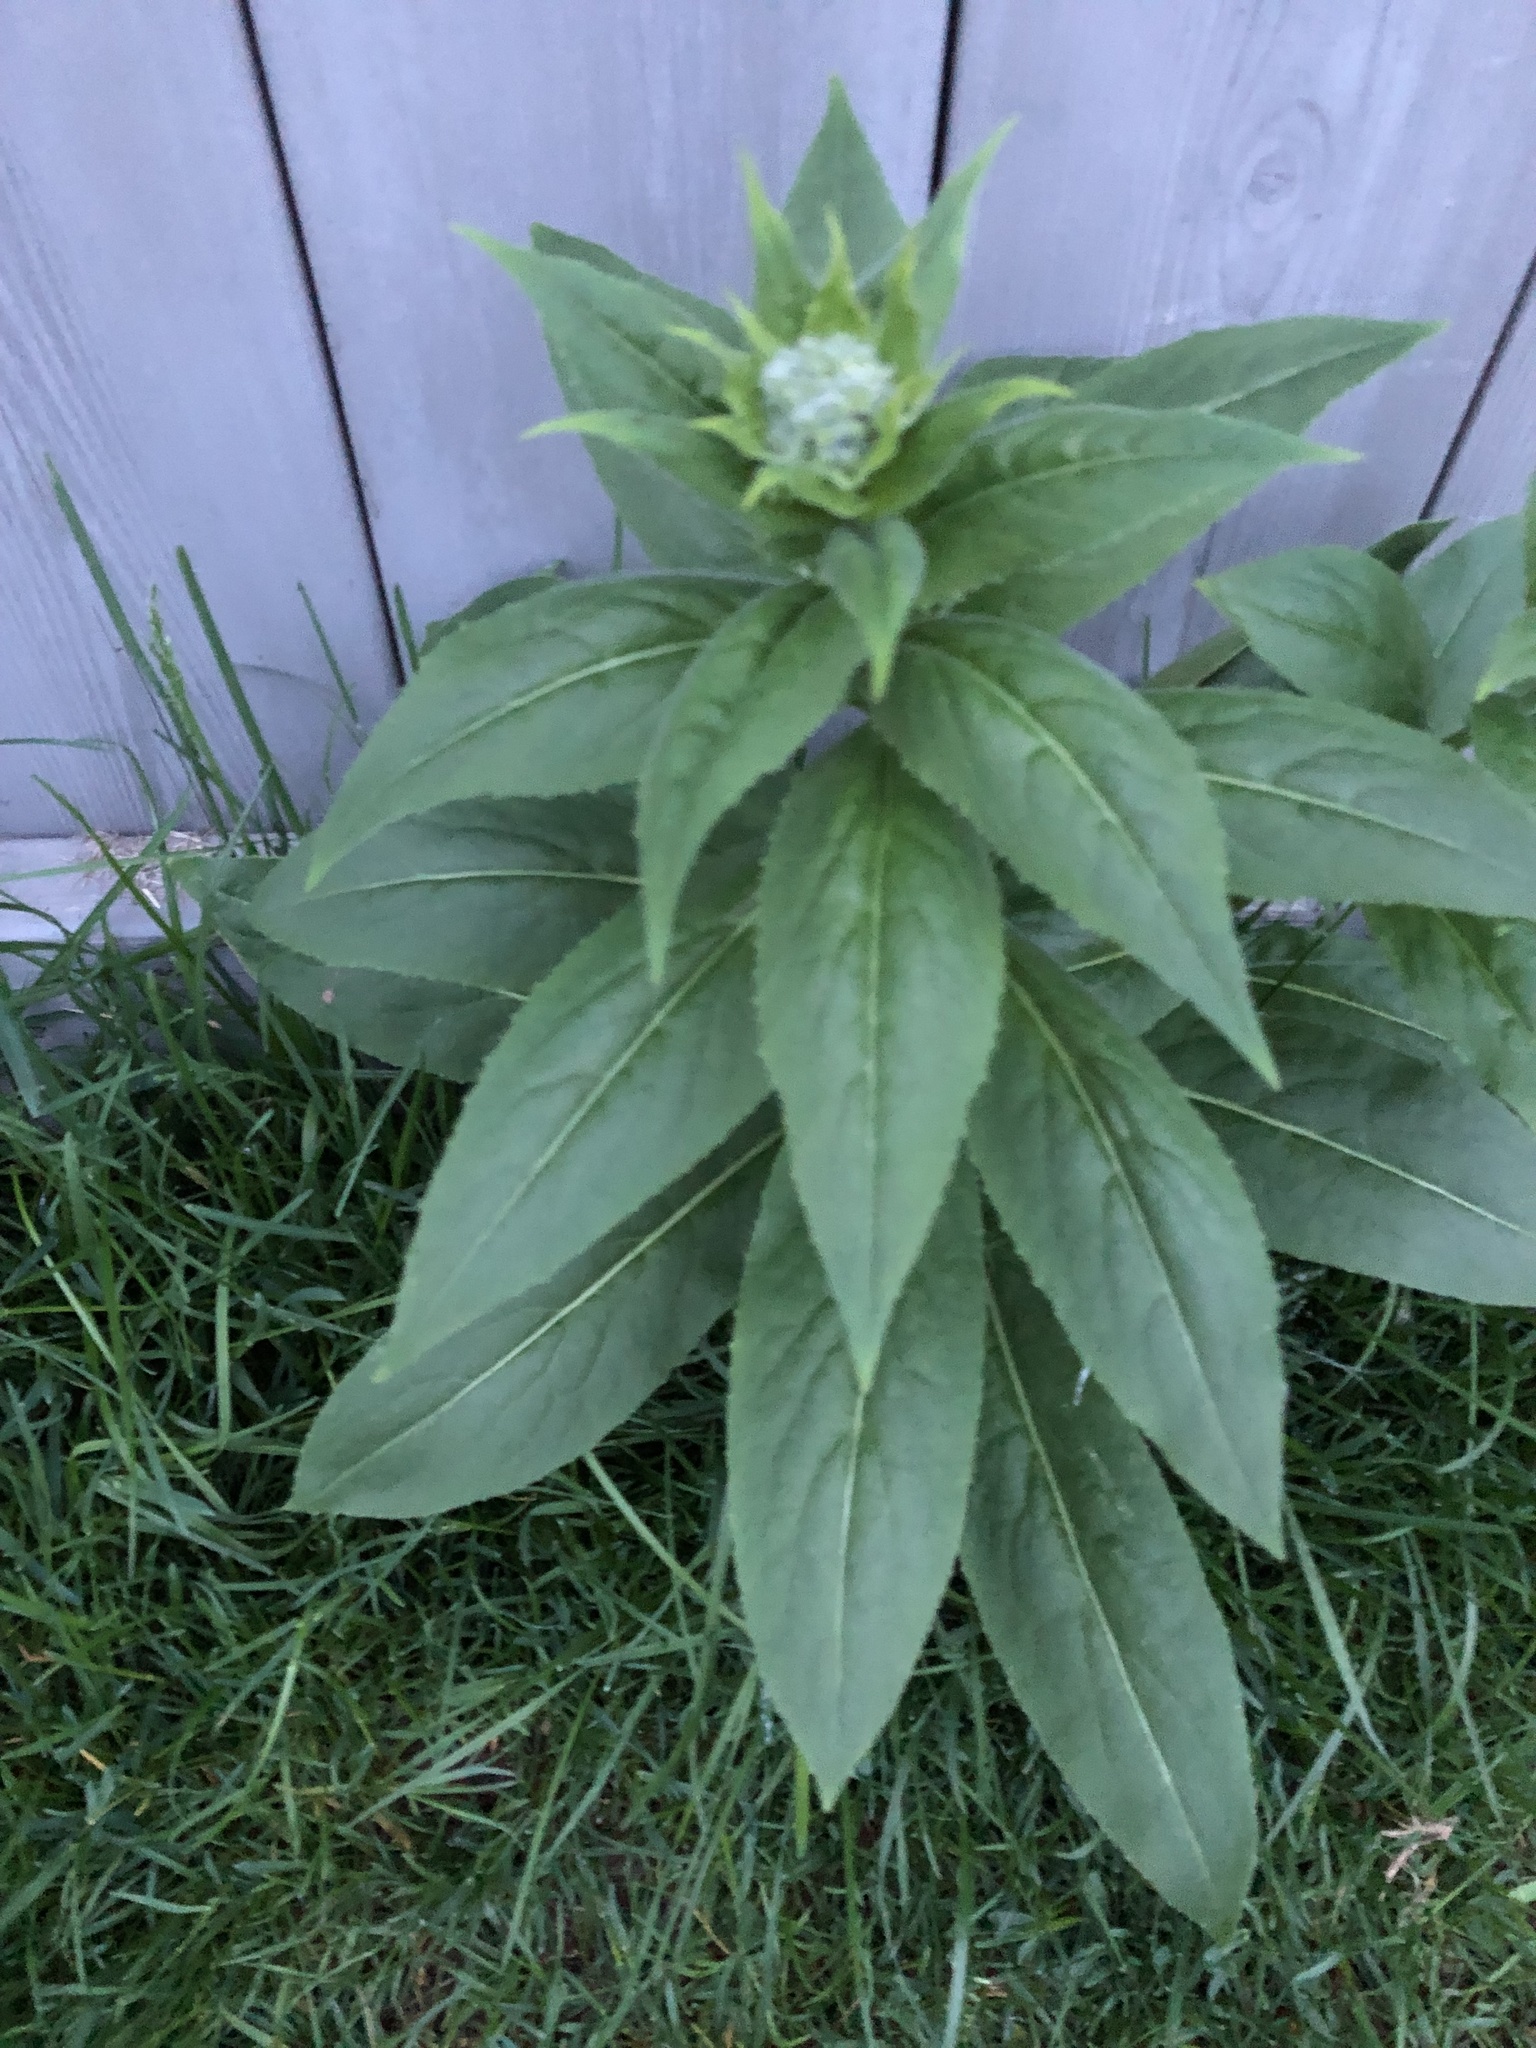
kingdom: Plantae
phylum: Tracheophyta
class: Magnoliopsida
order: Brassicales
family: Brassicaceae
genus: Hesperis
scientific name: Hesperis matronalis
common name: Dame's-violet
